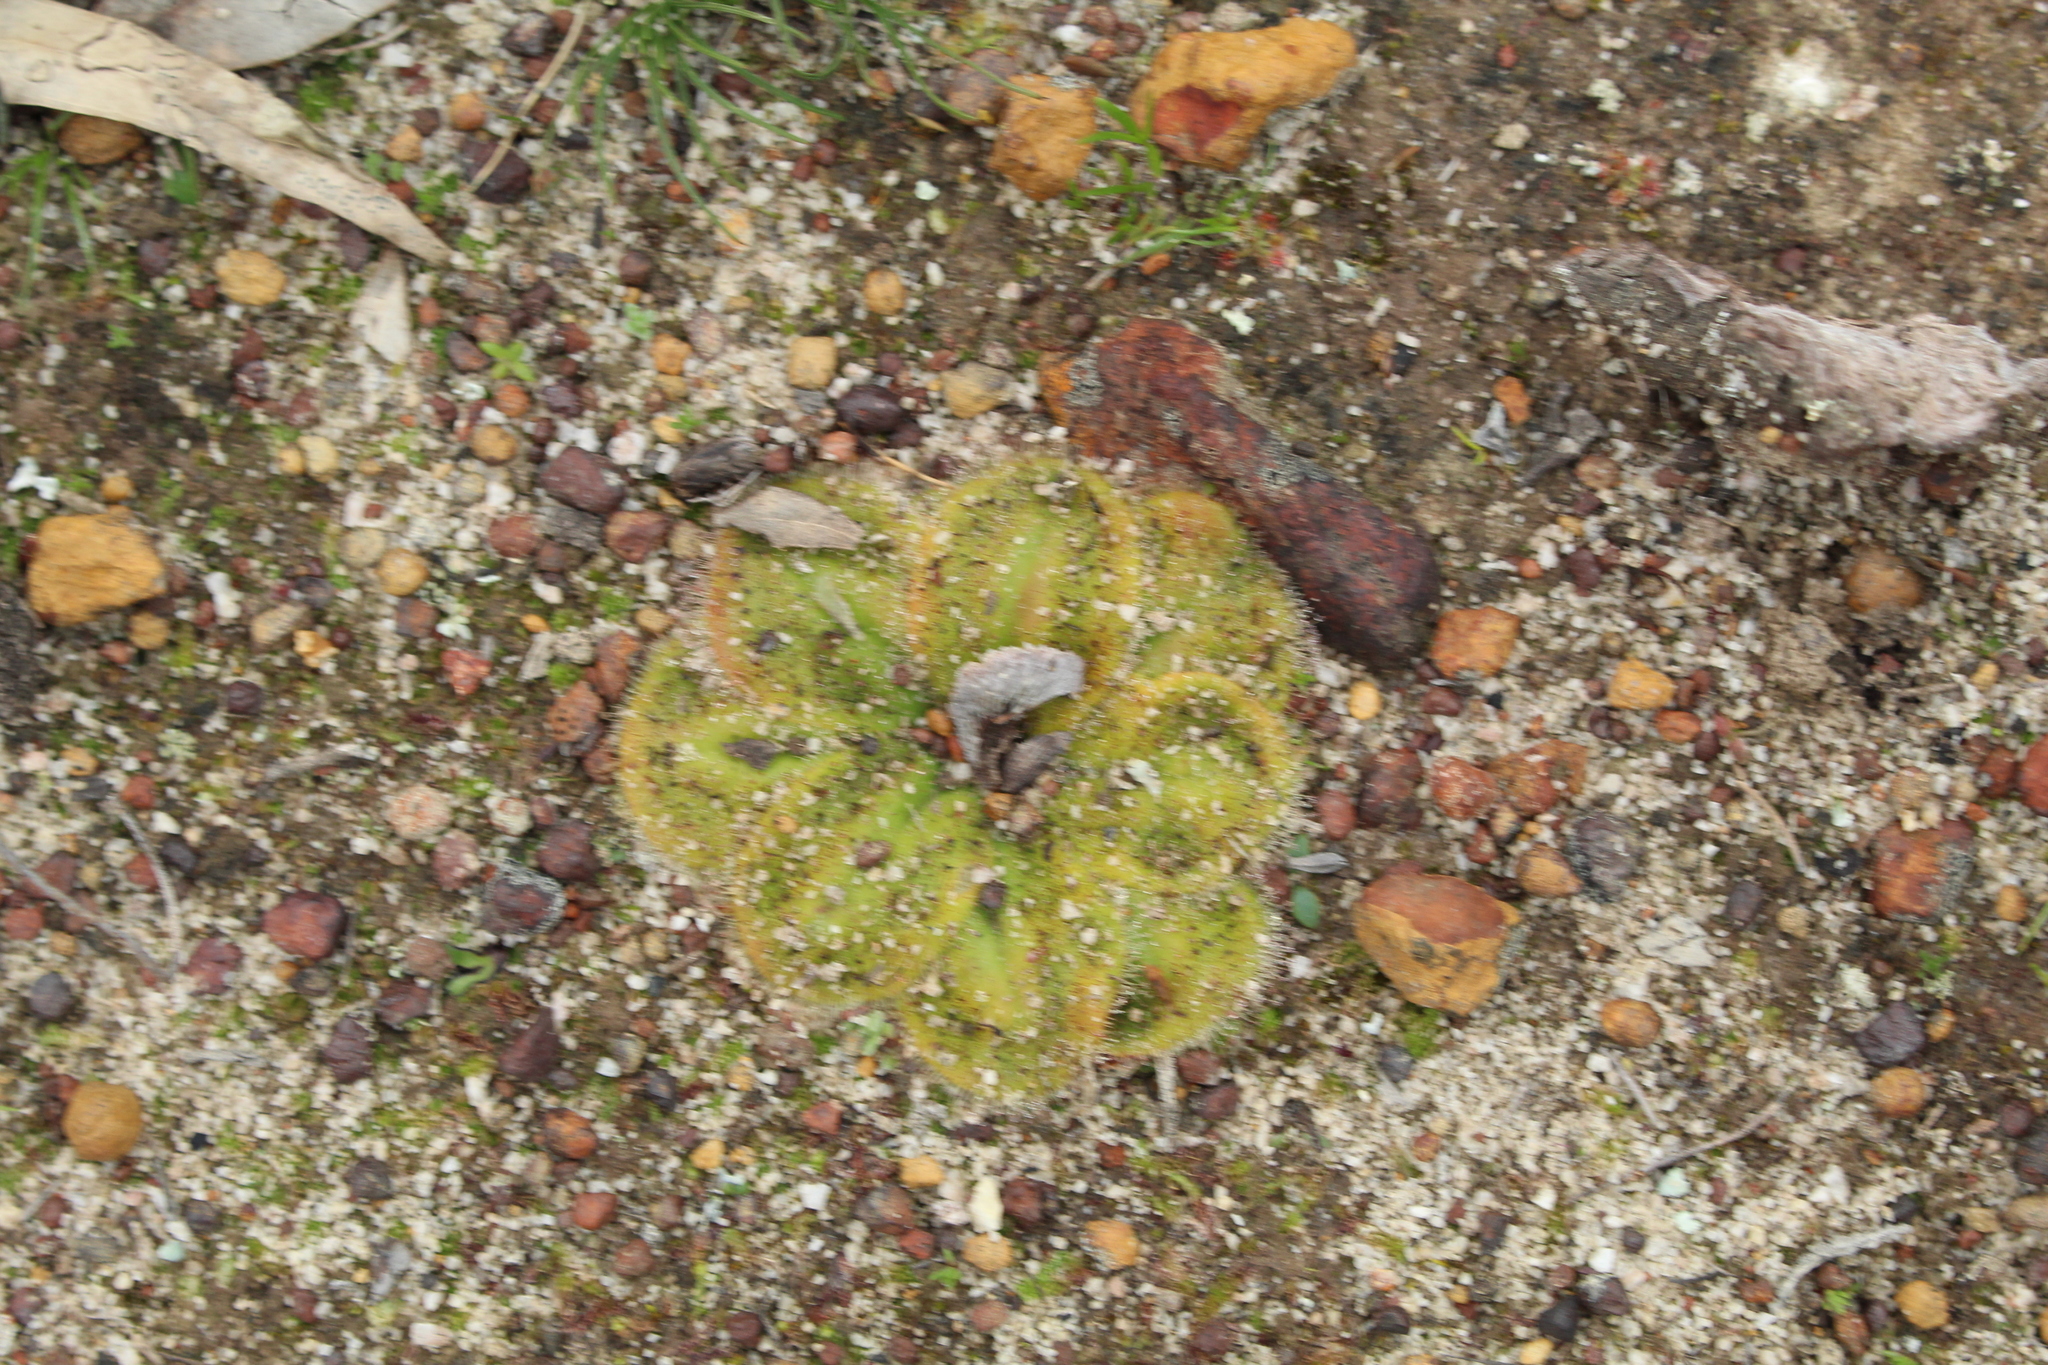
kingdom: Plantae
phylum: Tracheophyta
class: Magnoliopsida
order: Caryophyllales
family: Droseraceae
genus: Drosera
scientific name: Drosera erythrorhiza
